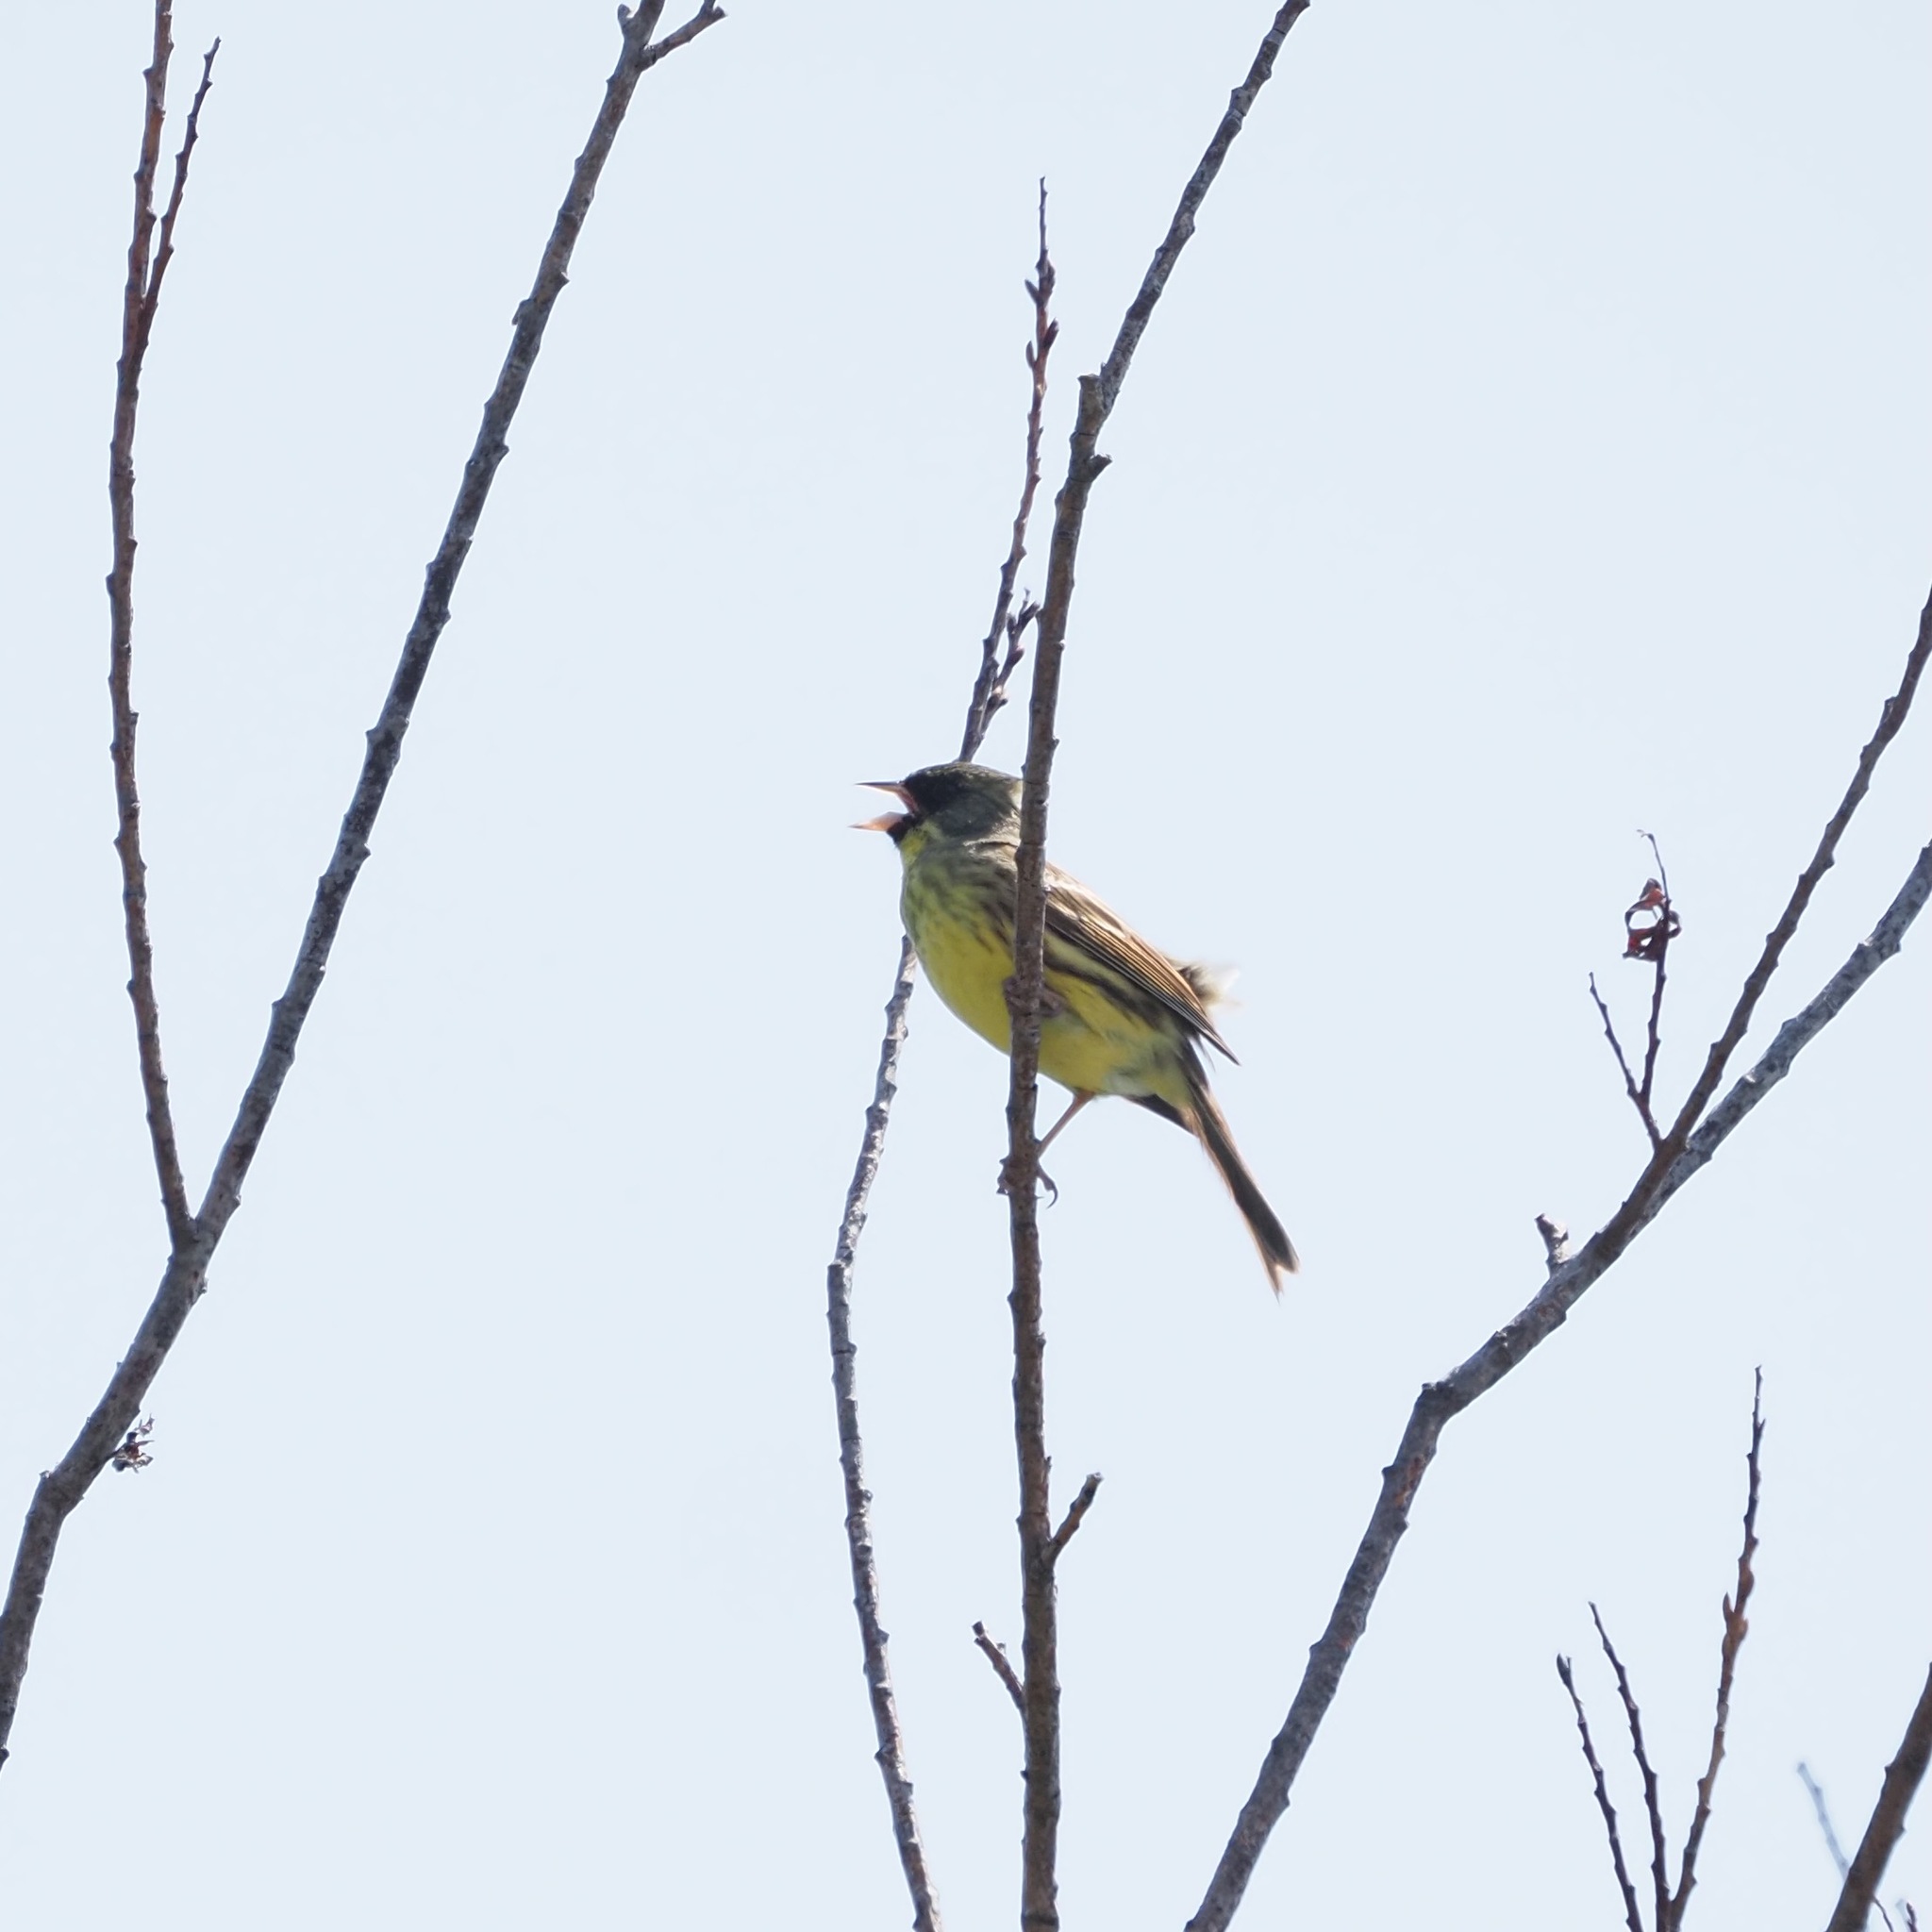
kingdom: Animalia
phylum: Chordata
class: Aves
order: Passeriformes
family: Emberizidae
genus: Emberiza
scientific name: Emberiza personata
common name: Masked bunting
